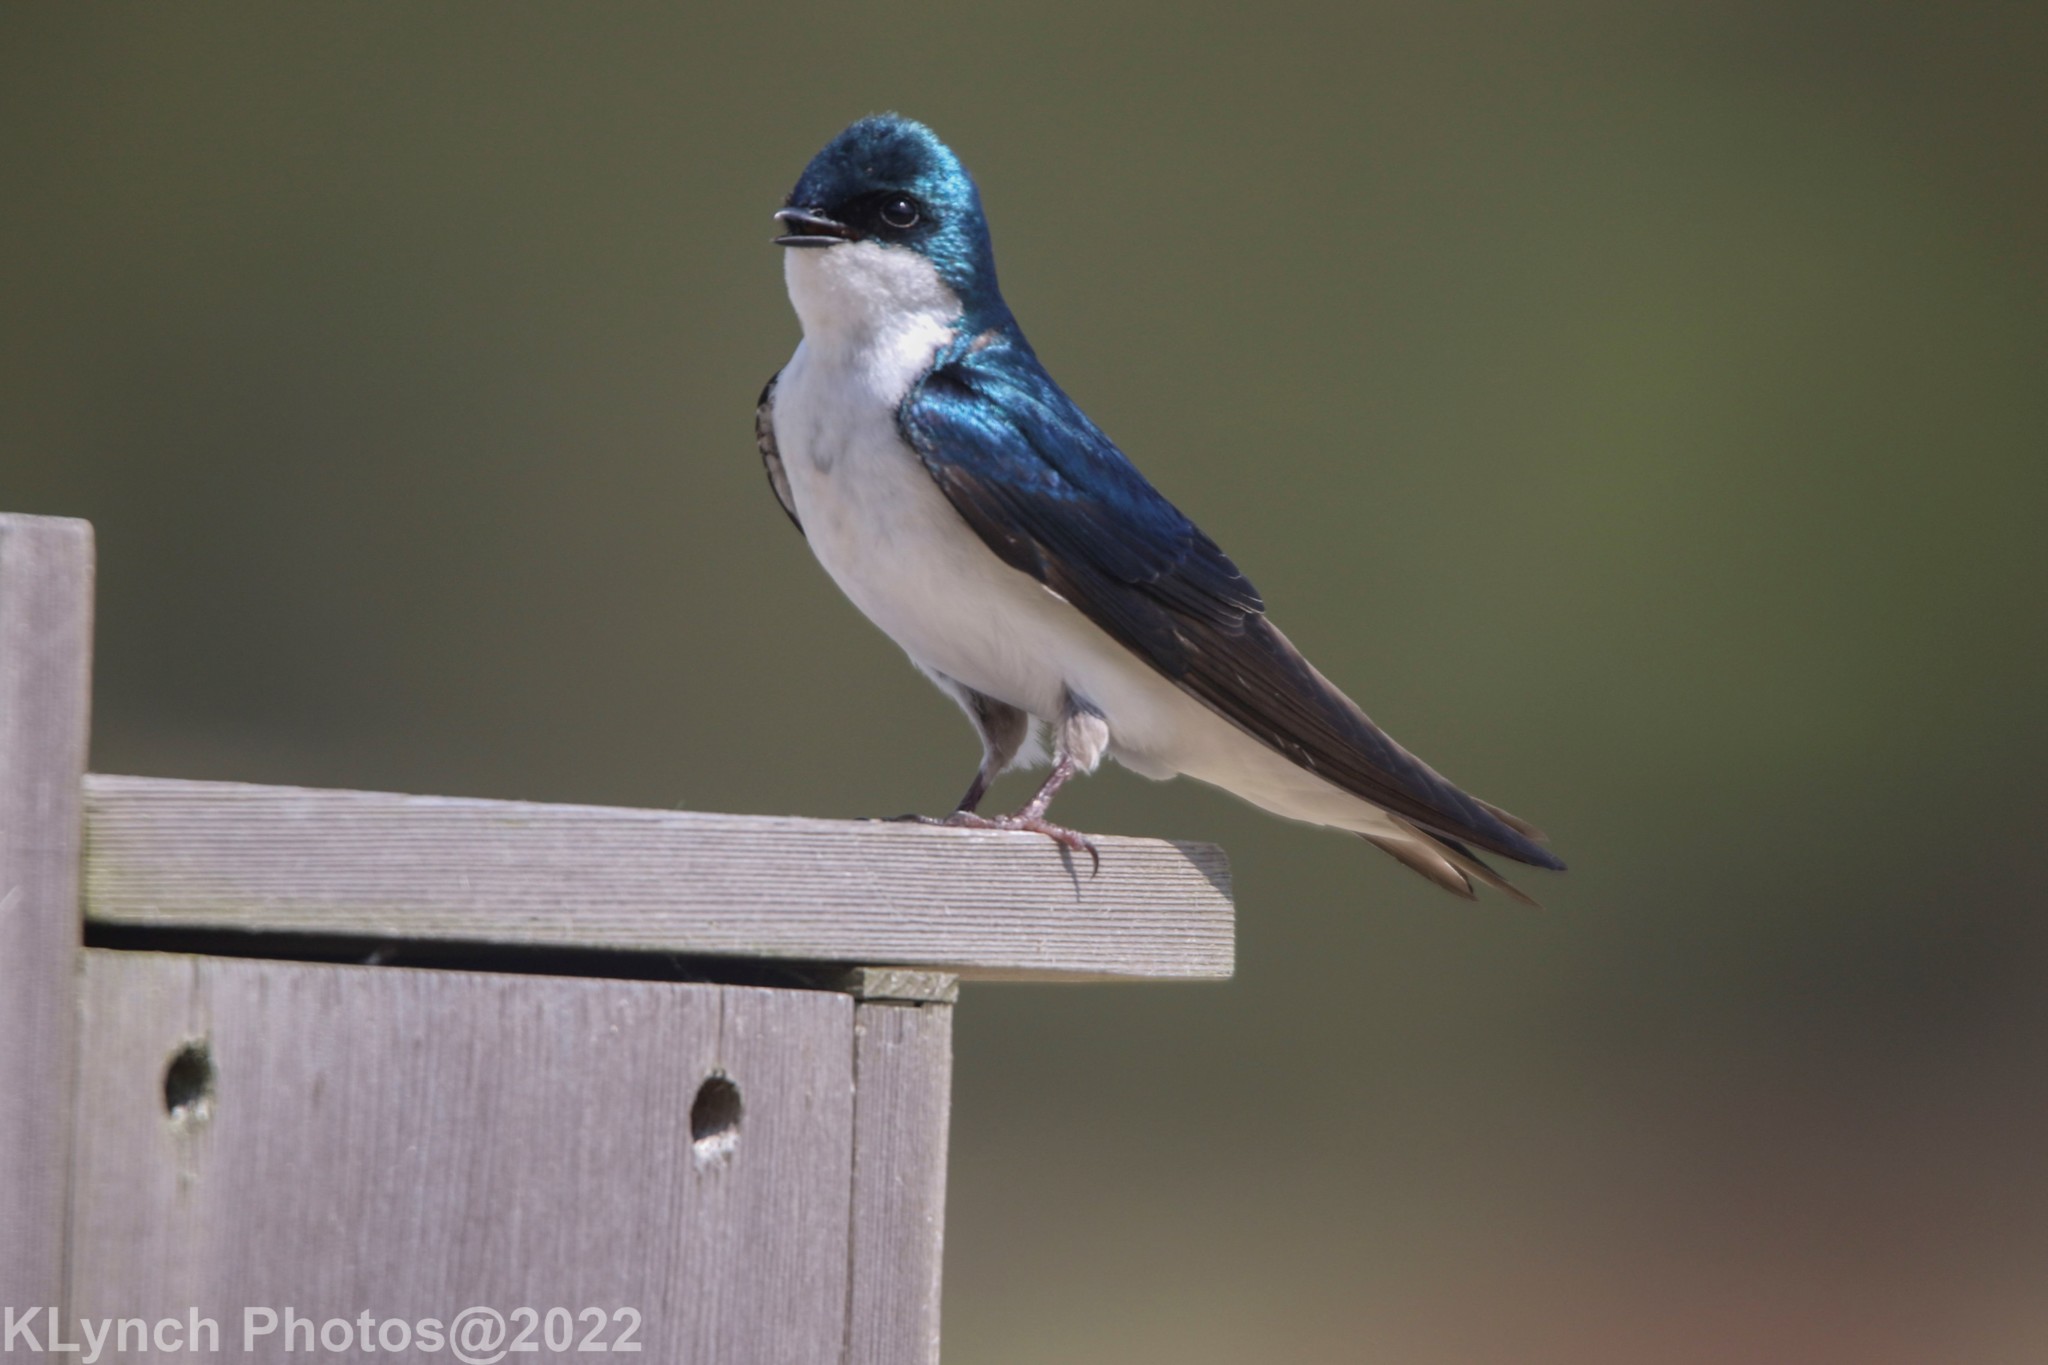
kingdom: Animalia
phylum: Chordata
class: Aves
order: Passeriformes
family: Hirundinidae
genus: Tachycineta
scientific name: Tachycineta bicolor
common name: Tree swallow
